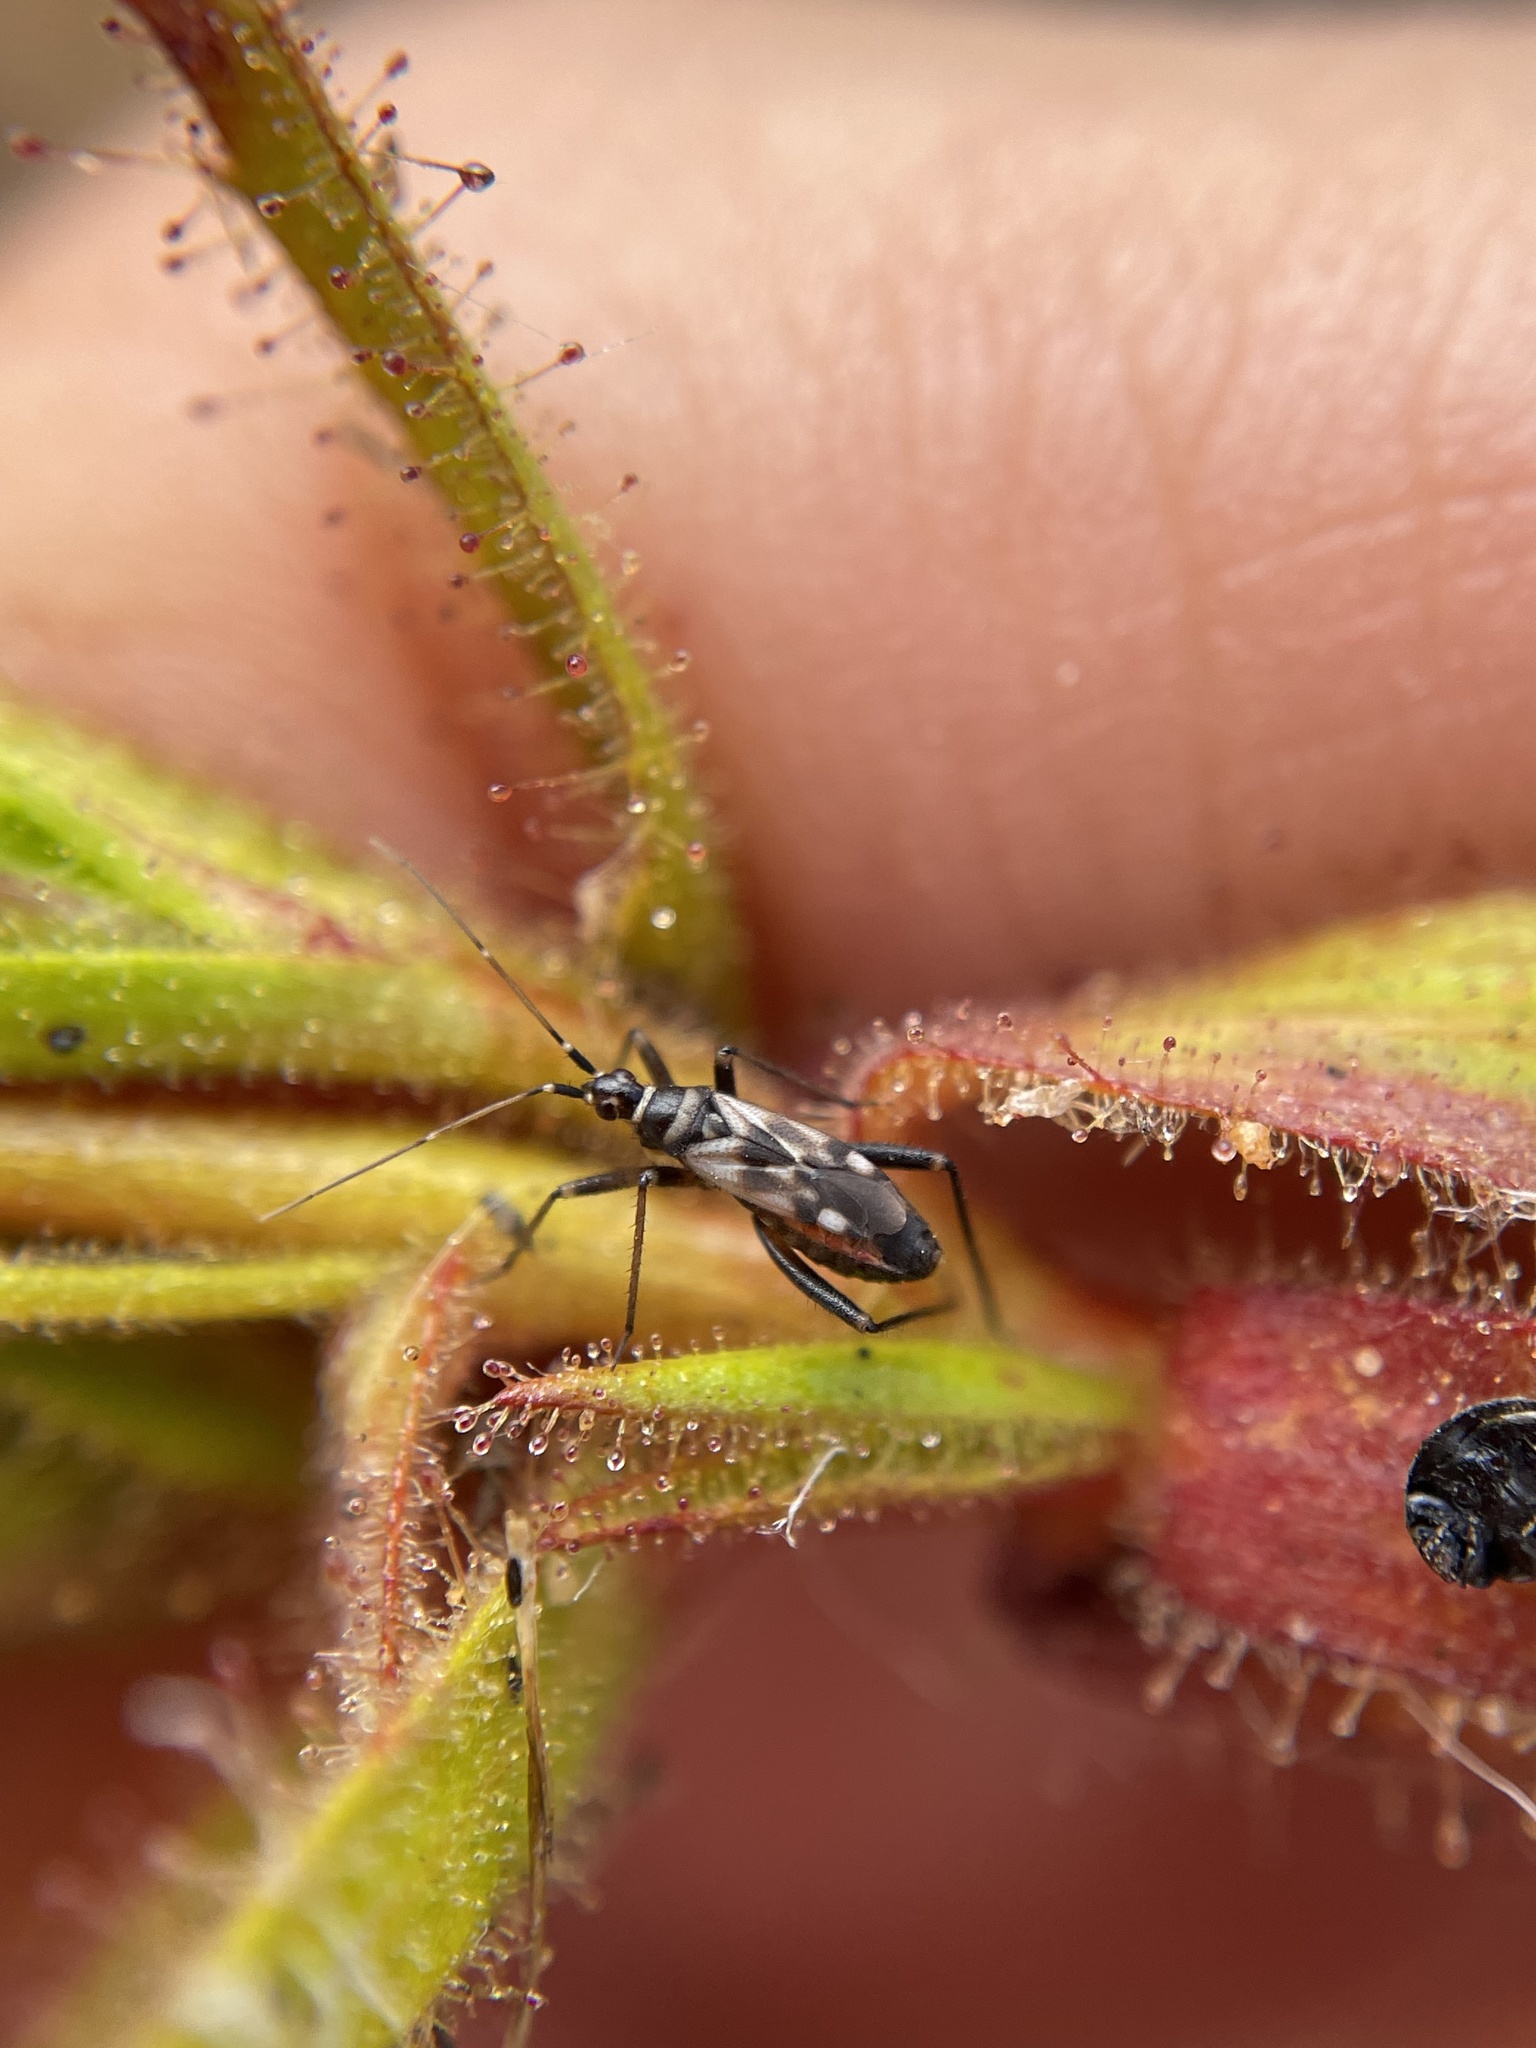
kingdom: Animalia
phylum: Arthropoda
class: Insecta
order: Hemiptera
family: Miridae
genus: Pameridea
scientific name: Pameridea marlothi
